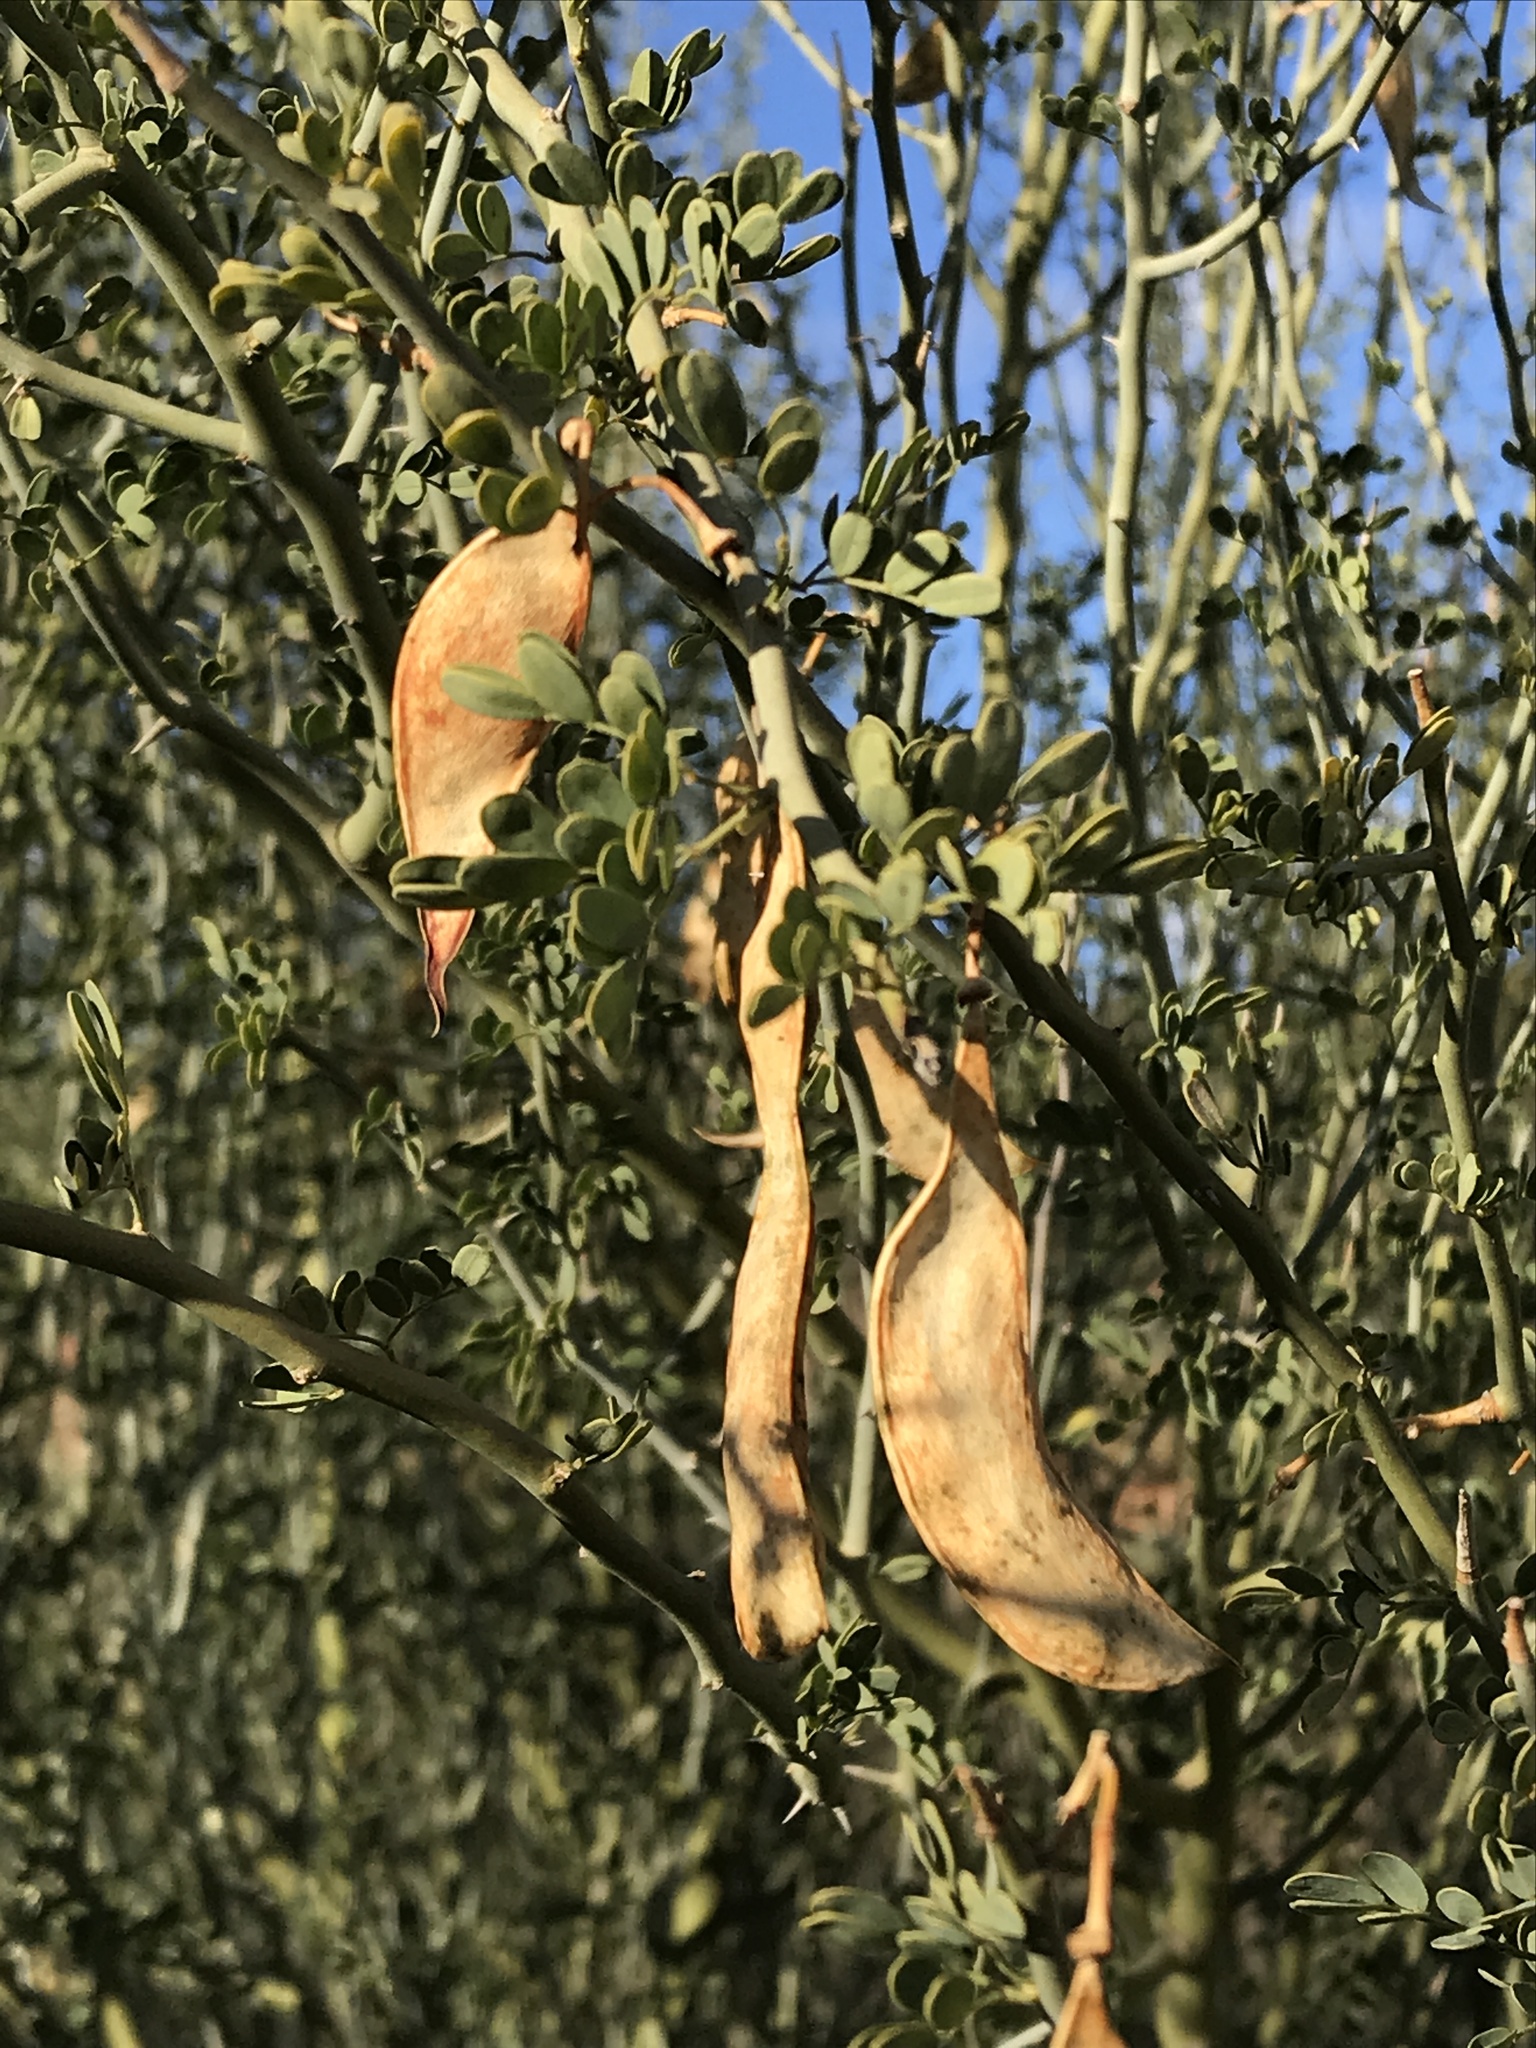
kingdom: Plantae
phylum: Tracheophyta
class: Magnoliopsida
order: Fabales
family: Fabaceae
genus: Parkinsonia
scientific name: Parkinsonia florida
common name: Blue paloverde
